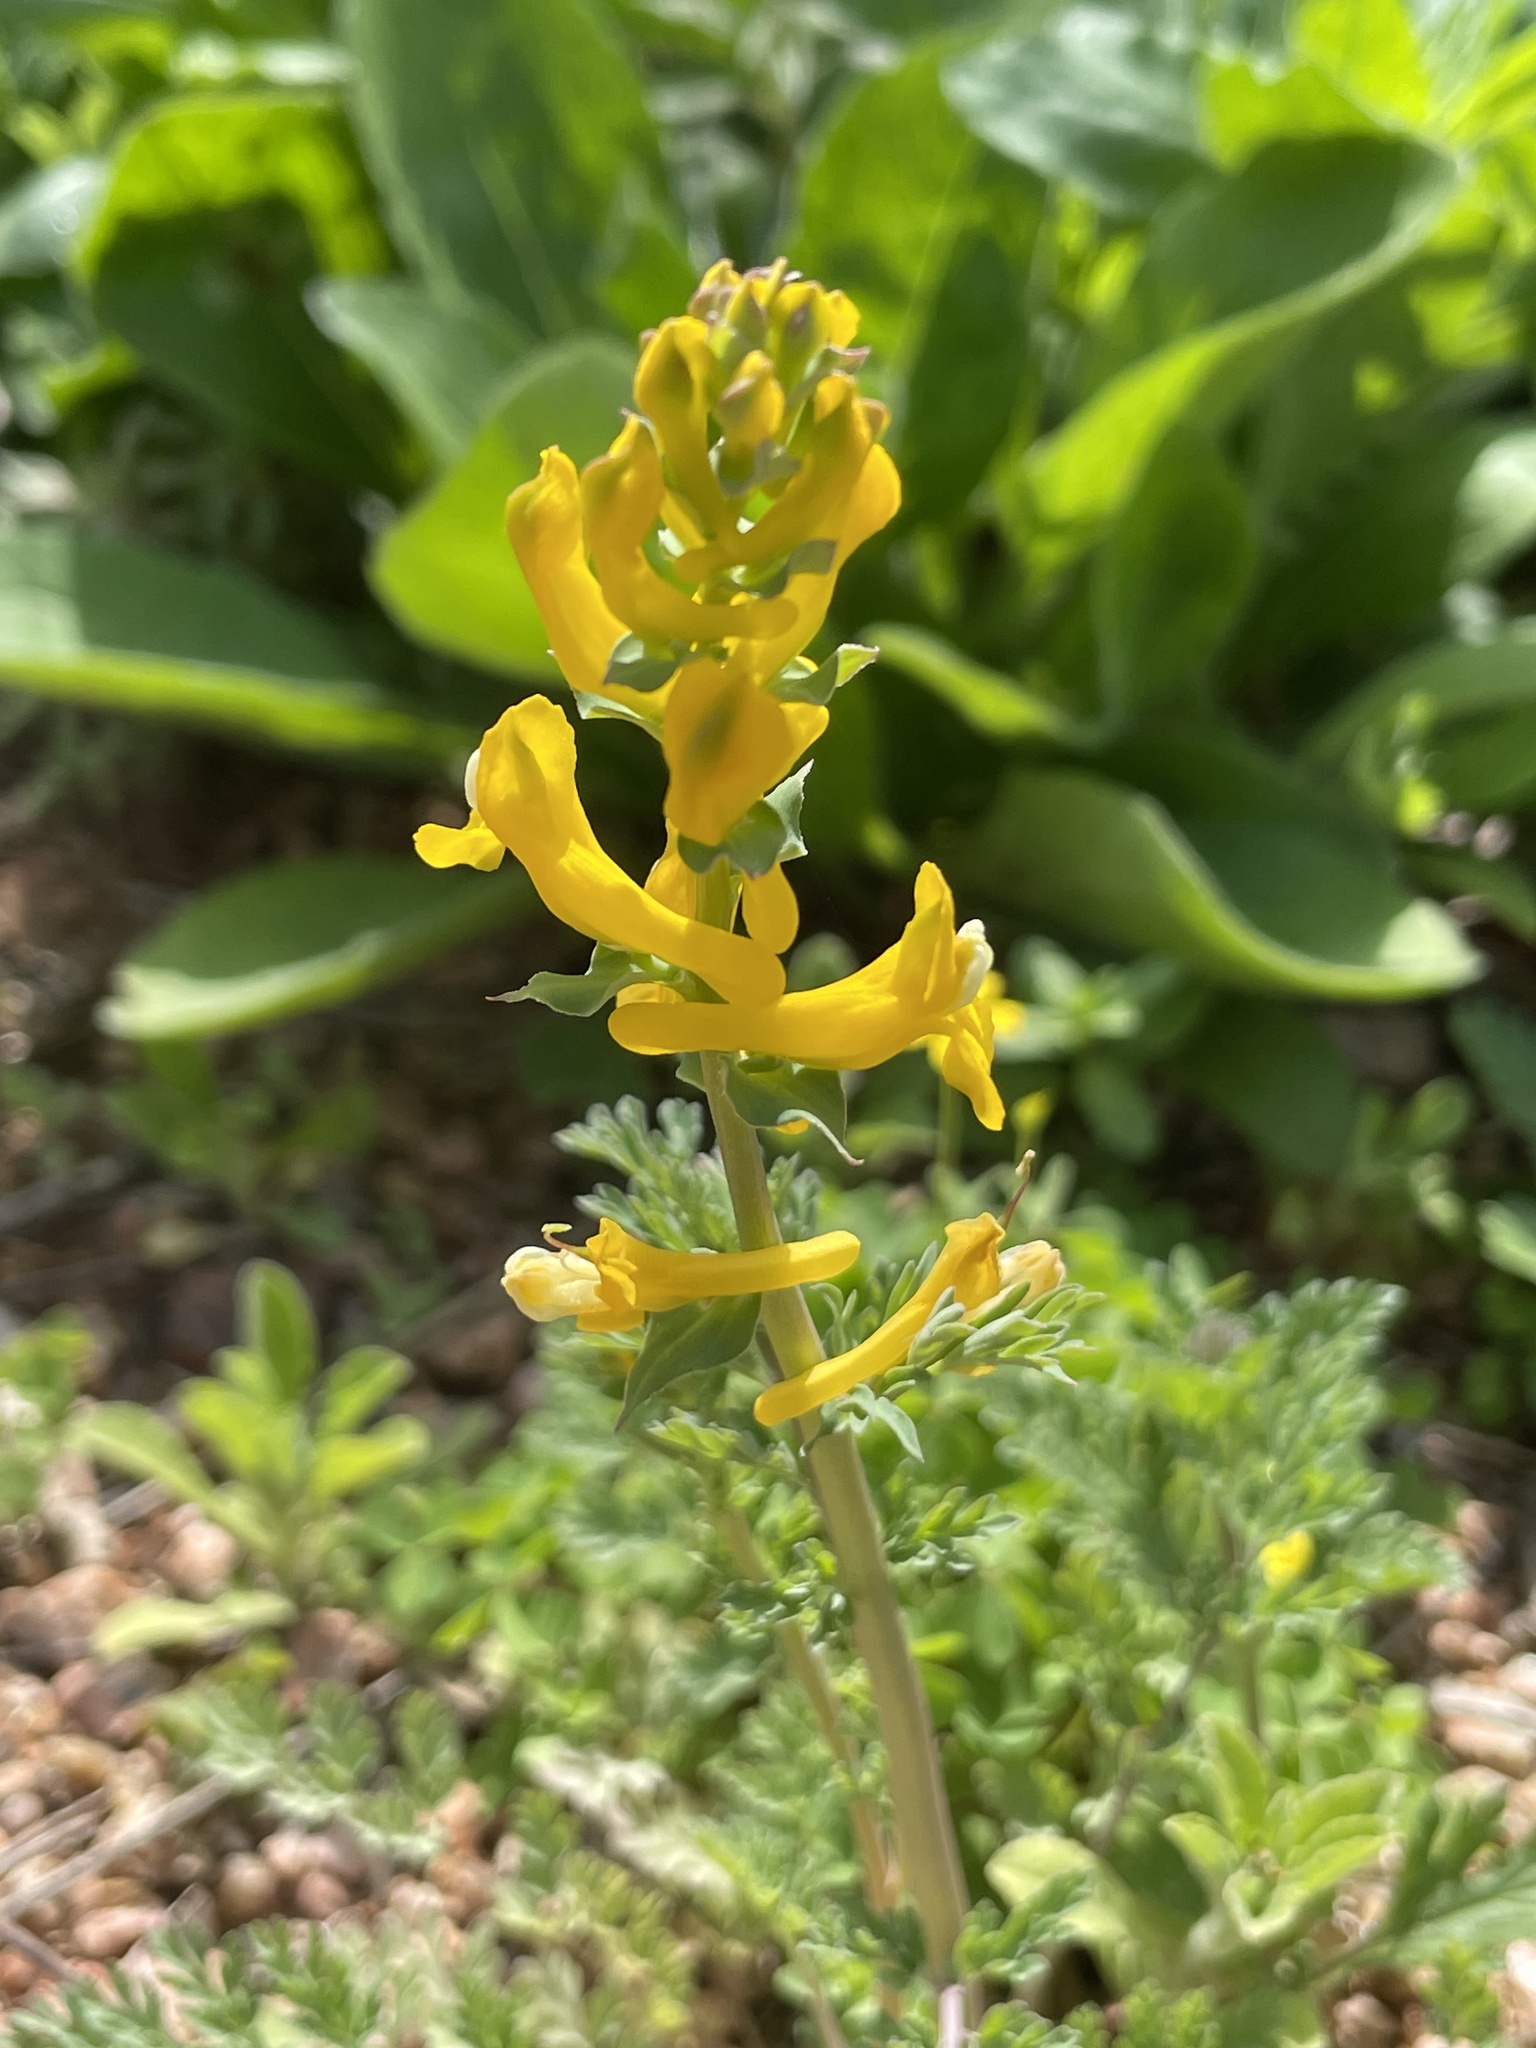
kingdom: Plantae
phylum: Tracheophyta
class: Magnoliopsida
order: Ranunculales
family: Papaveraceae
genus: Corydalis
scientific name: Corydalis aurea
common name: Golden corydalis
